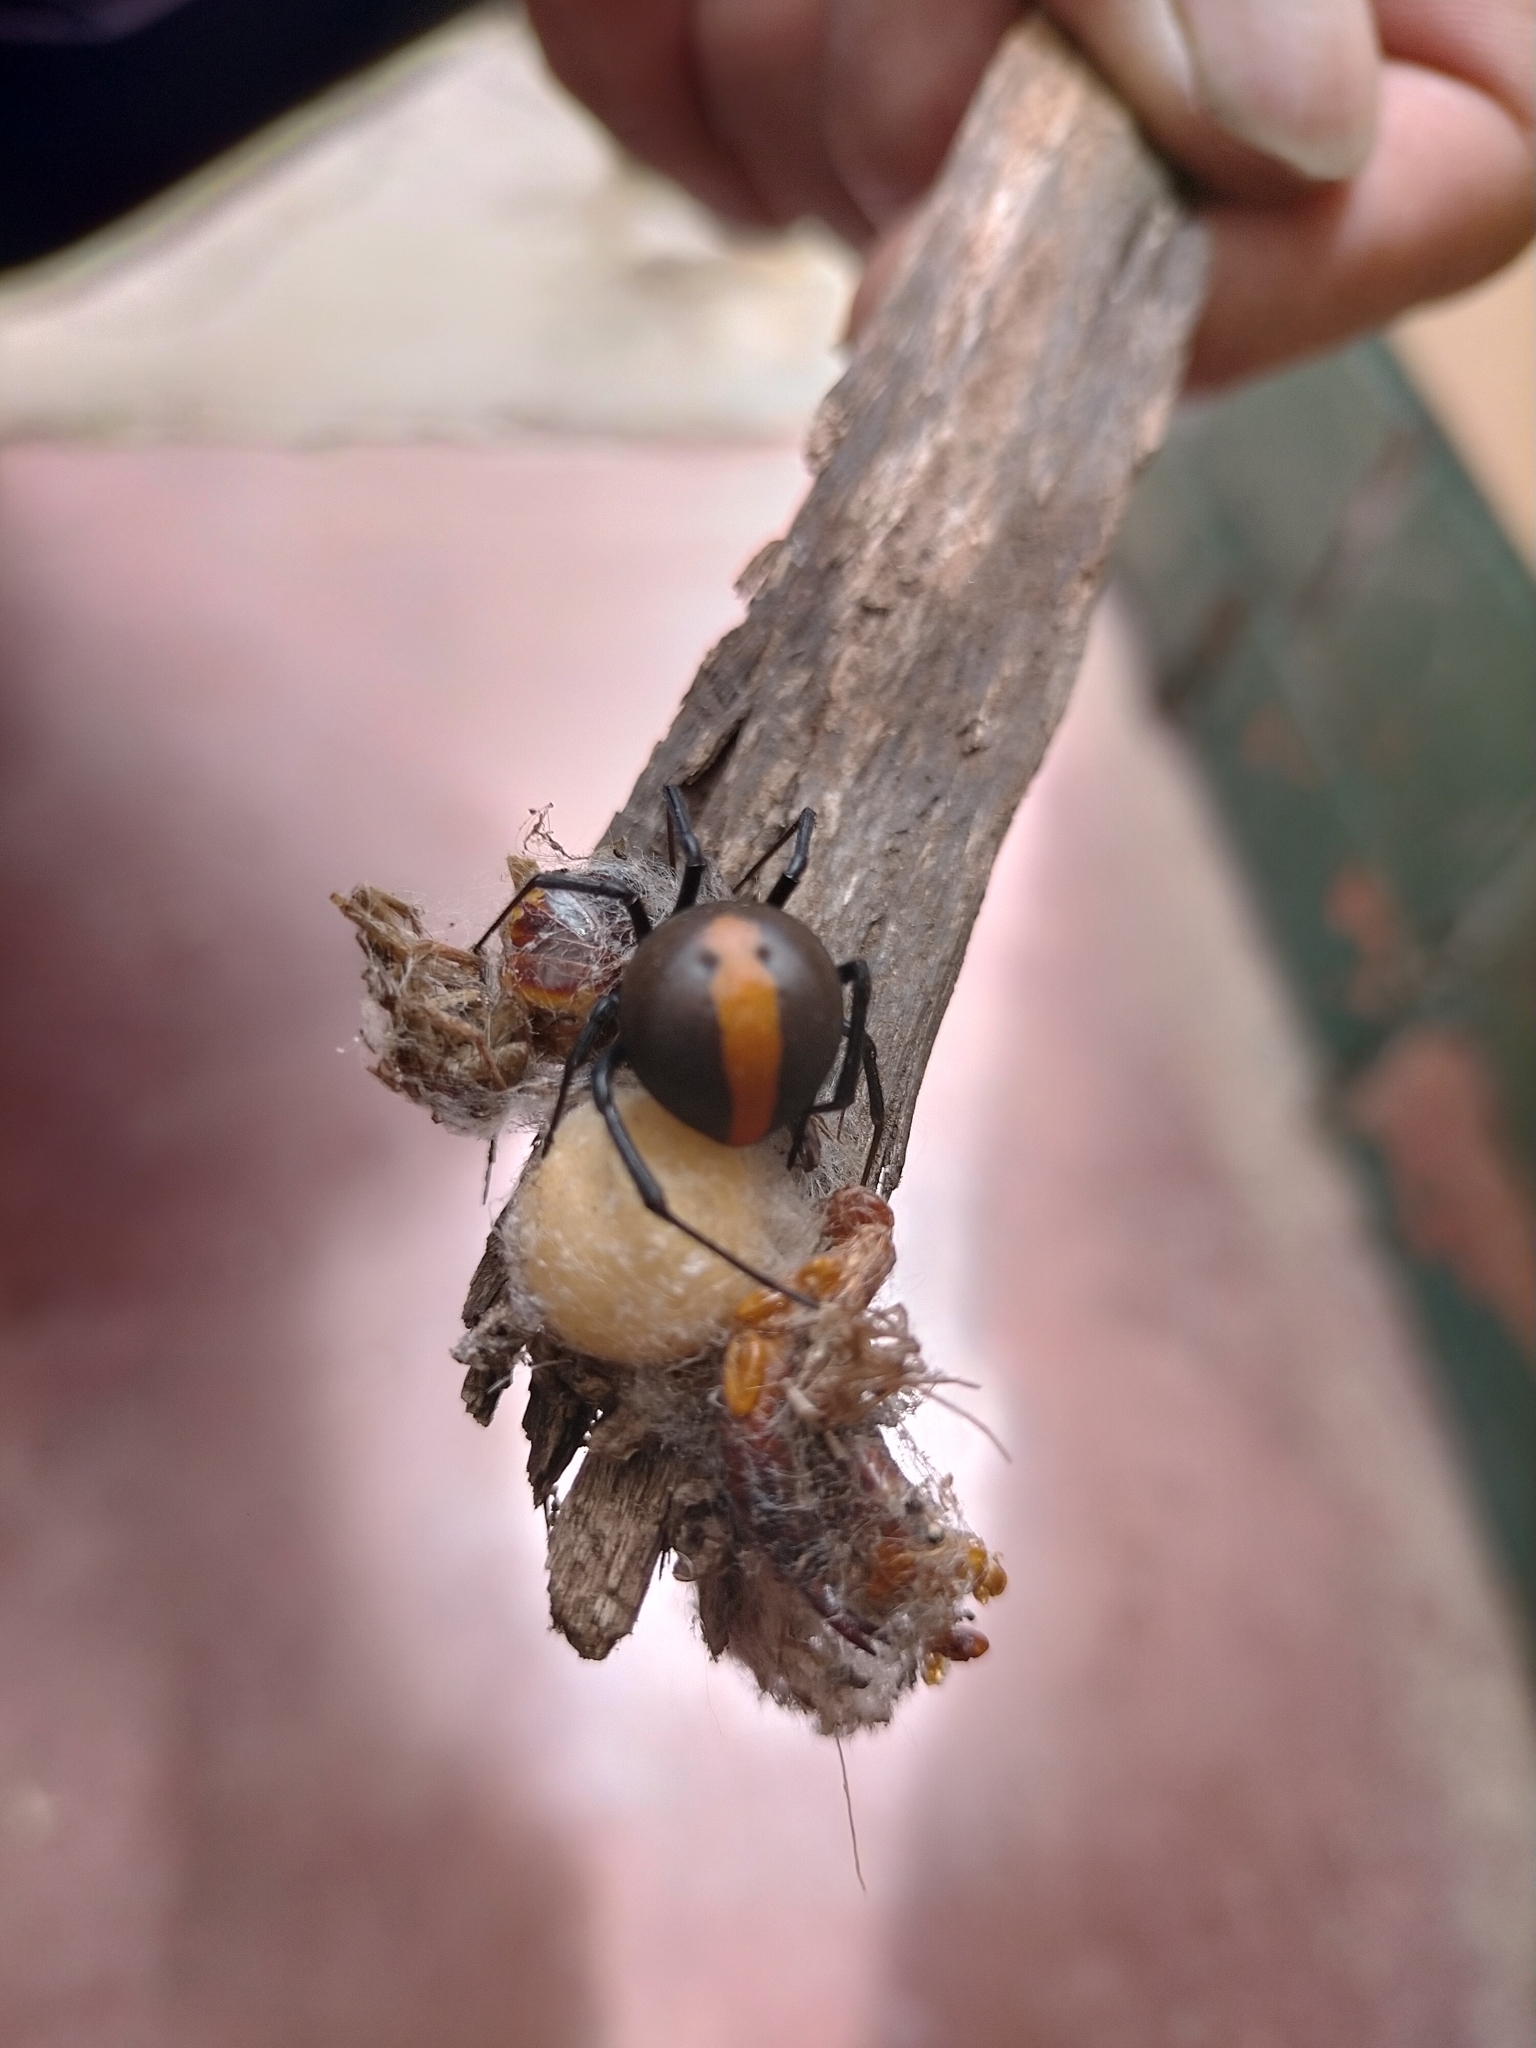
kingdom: Animalia
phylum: Arthropoda
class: Arachnida
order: Araneae
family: Theridiidae
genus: Latrodectus
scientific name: Latrodectus hasselti
